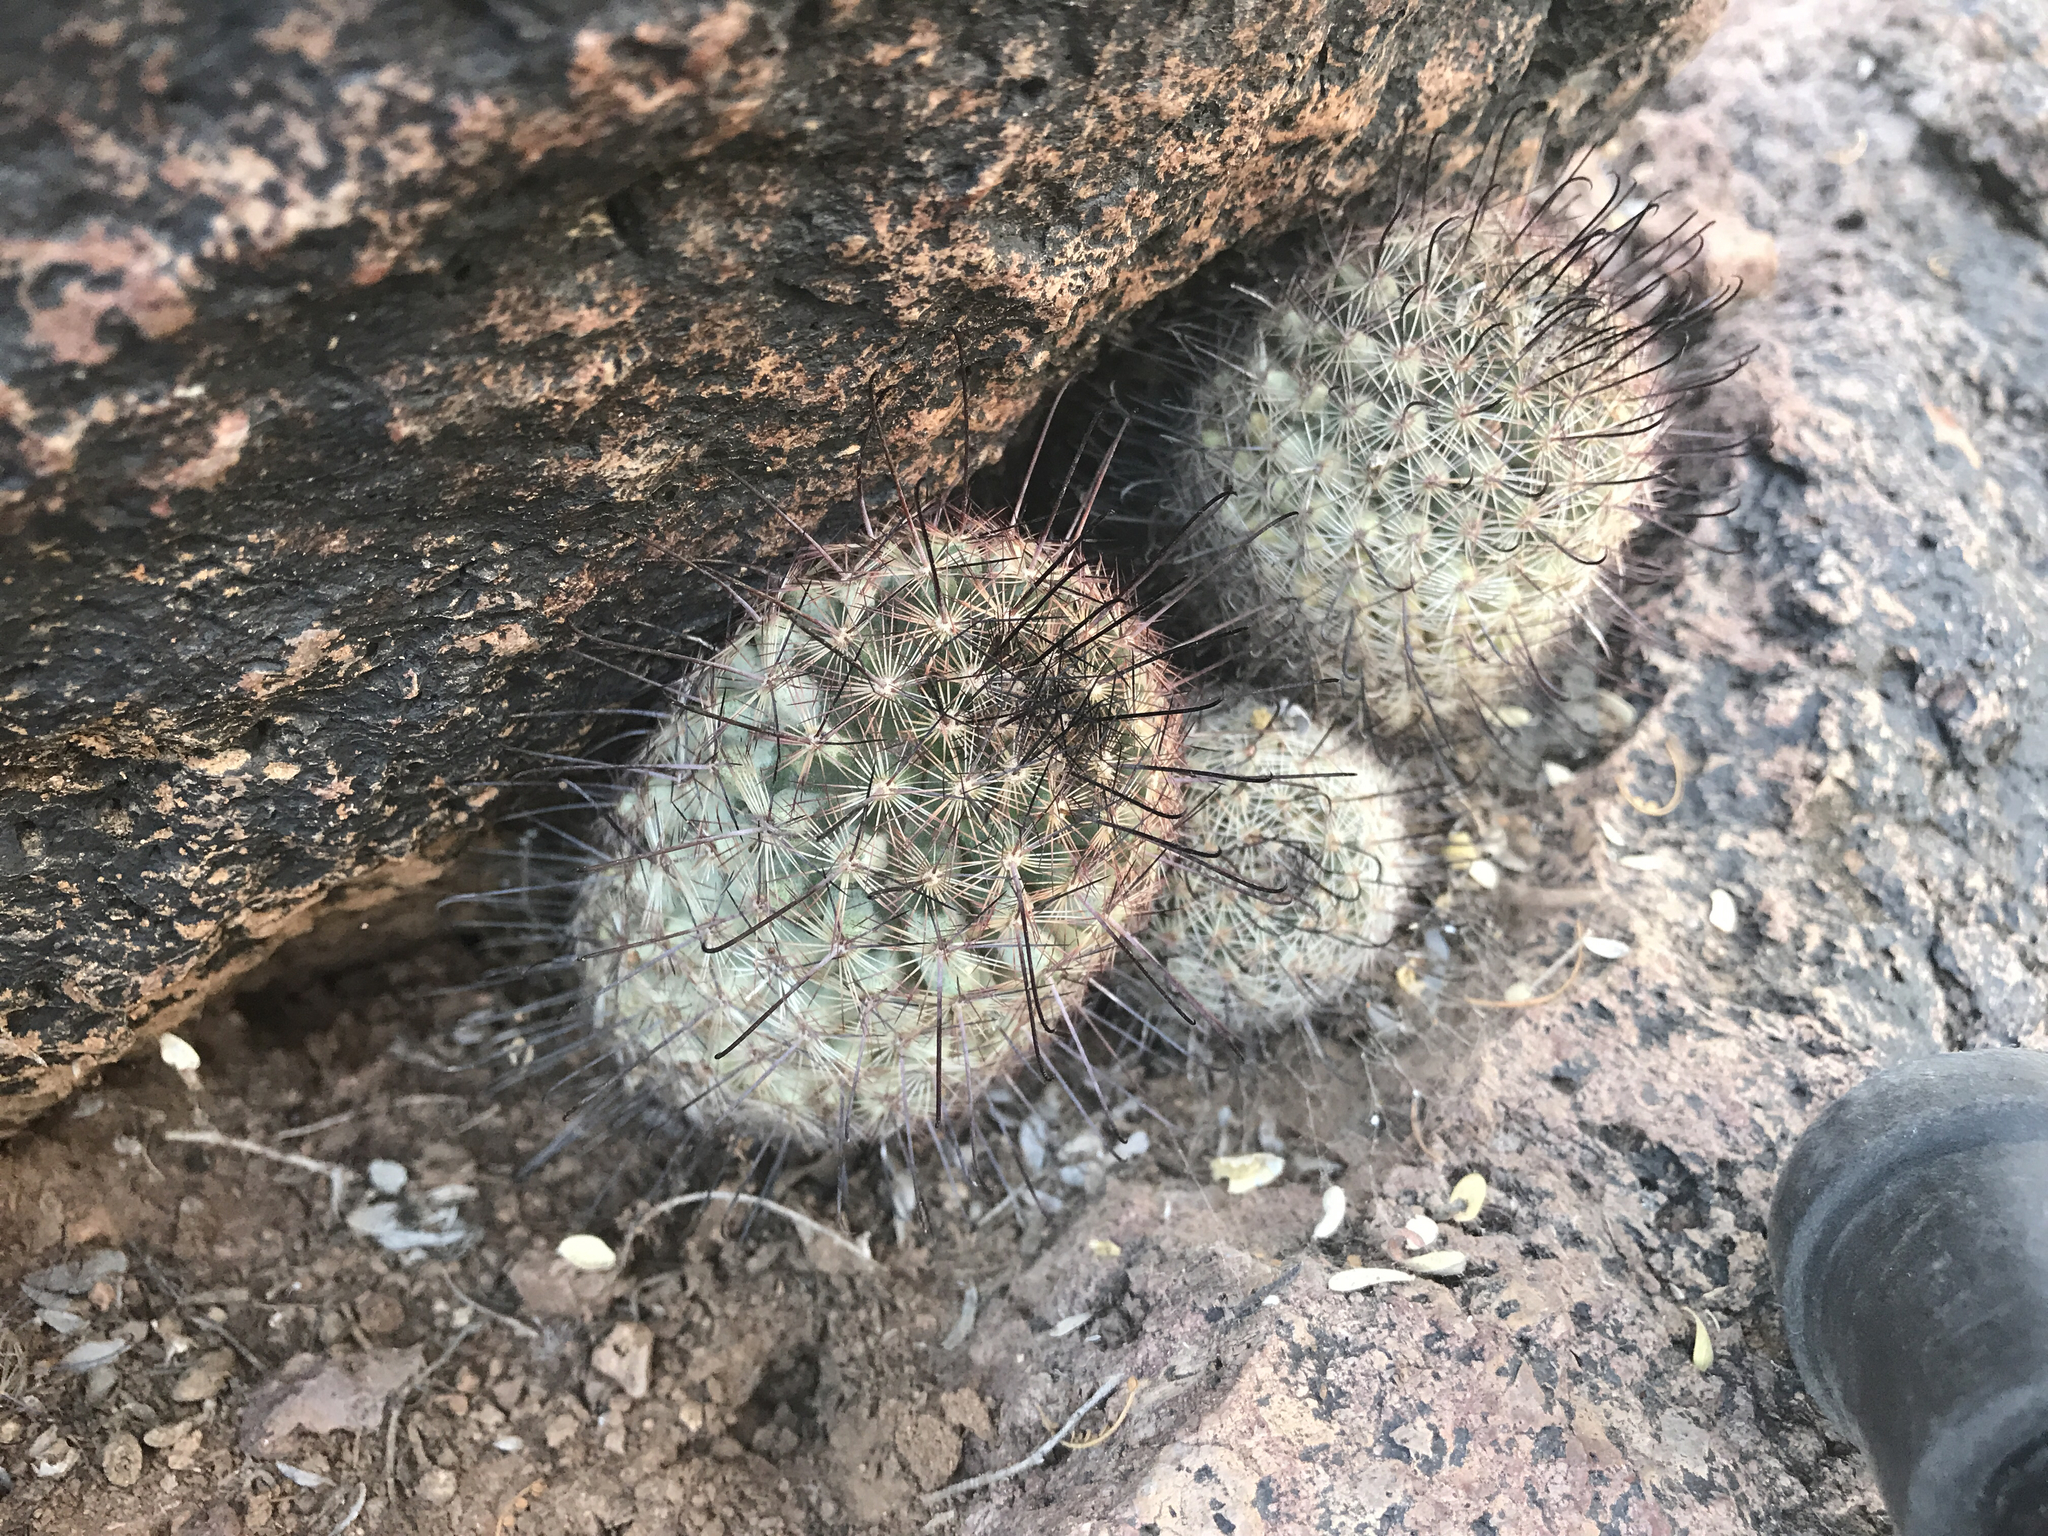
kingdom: Plantae
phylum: Tracheophyta
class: Magnoliopsida
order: Caryophyllales
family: Cactaceae
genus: Cochemiea
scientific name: Cochemiea grahamii
